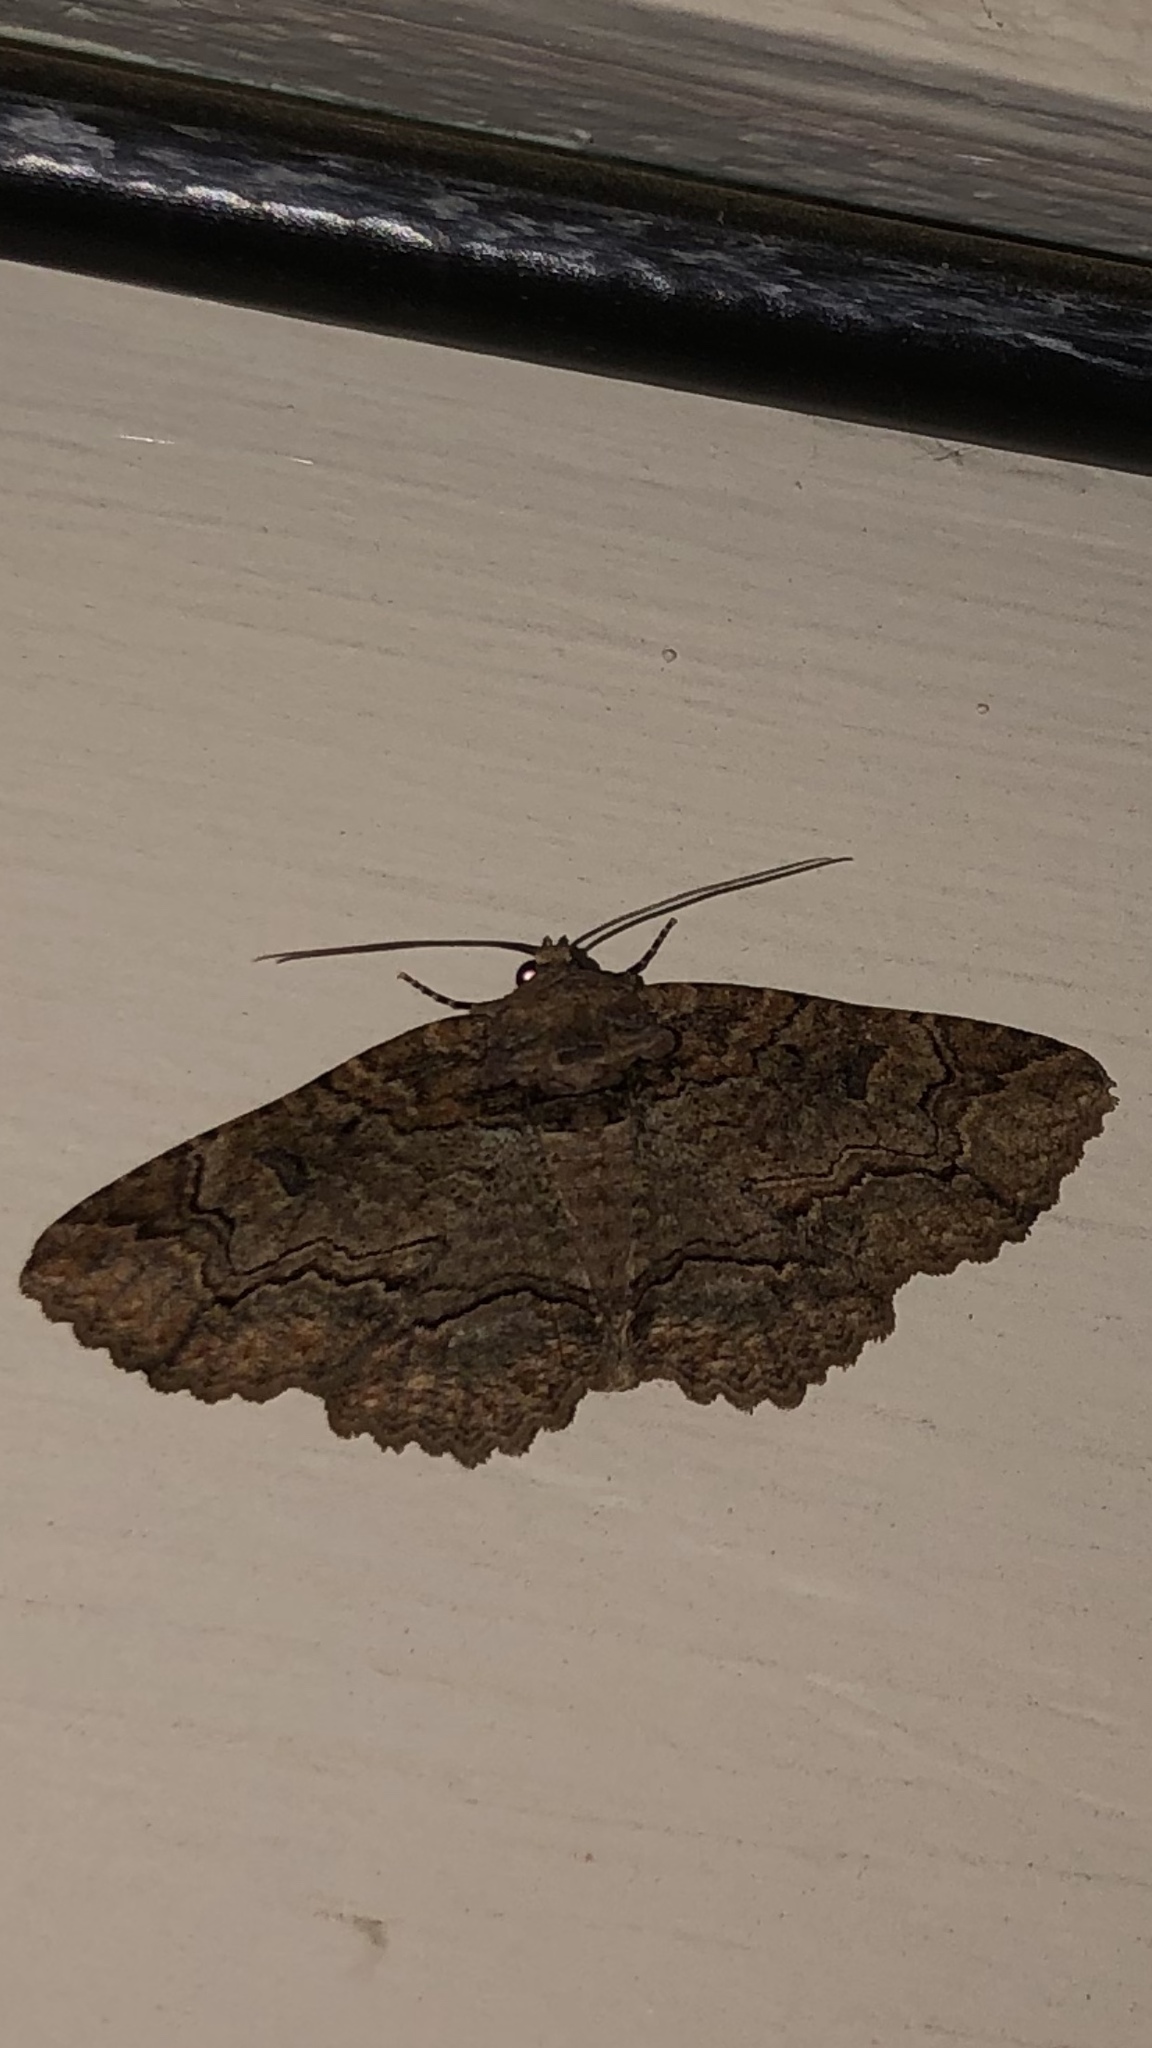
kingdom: Animalia
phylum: Arthropoda
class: Insecta
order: Lepidoptera
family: Erebidae
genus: Zale
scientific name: Zale galbanata
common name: Maple zale
